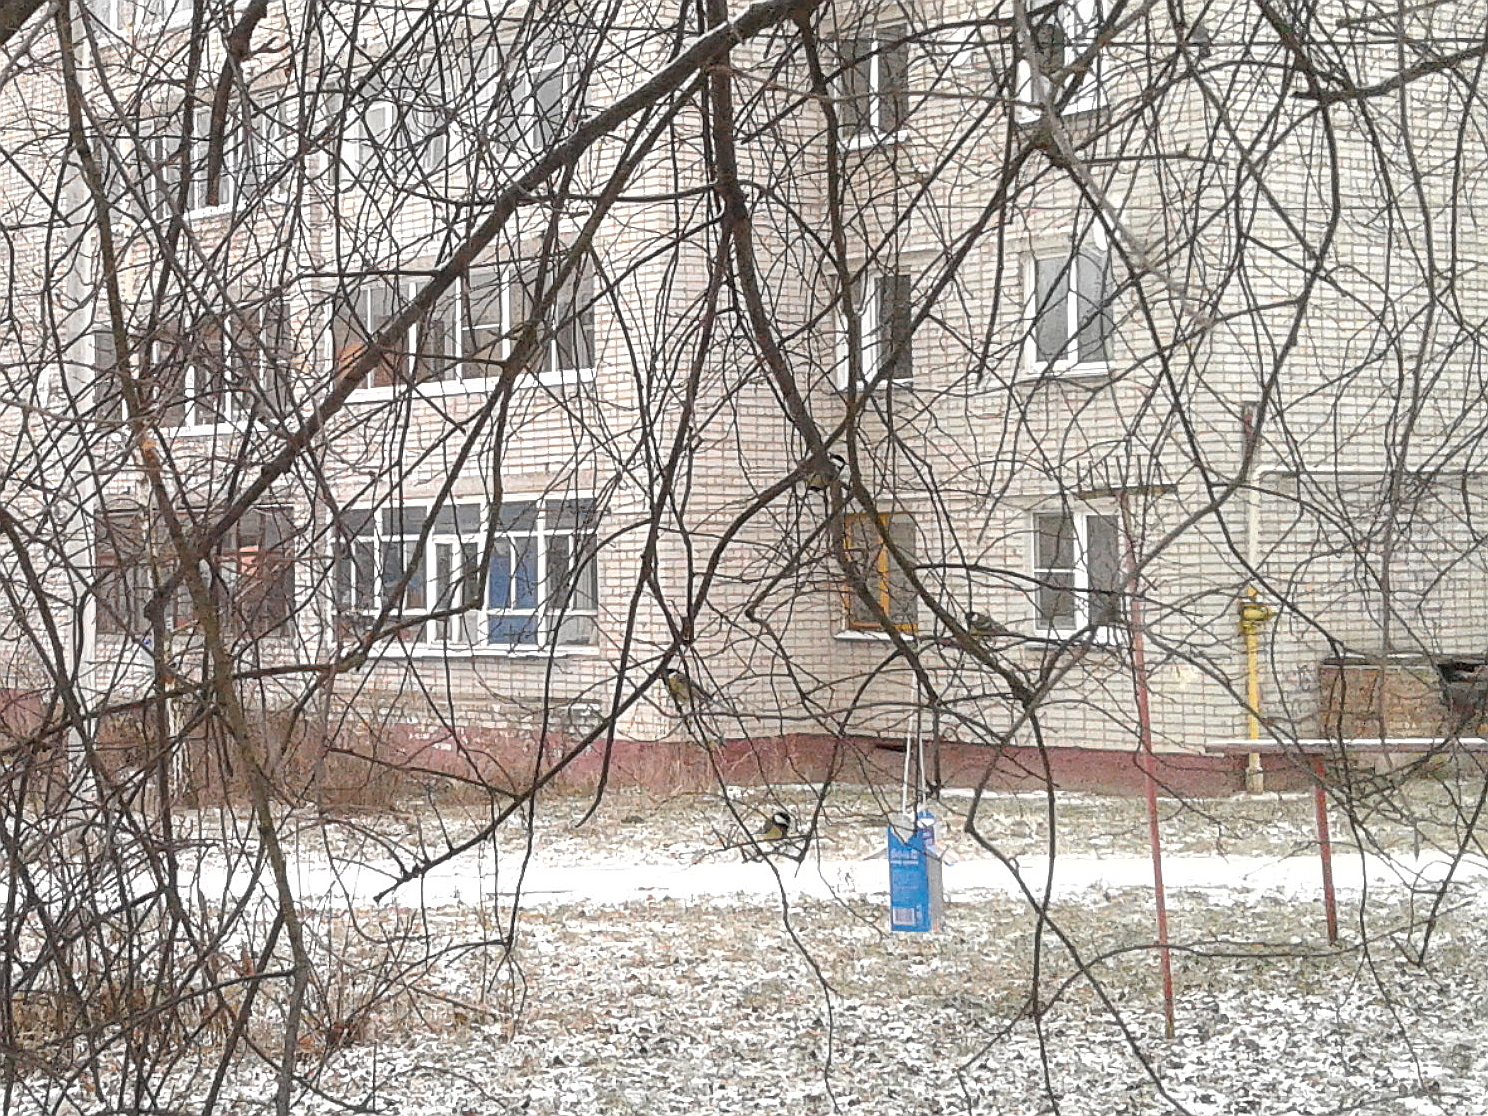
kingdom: Animalia
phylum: Chordata
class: Aves
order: Passeriformes
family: Paridae
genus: Parus
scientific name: Parus major
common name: Great tit
